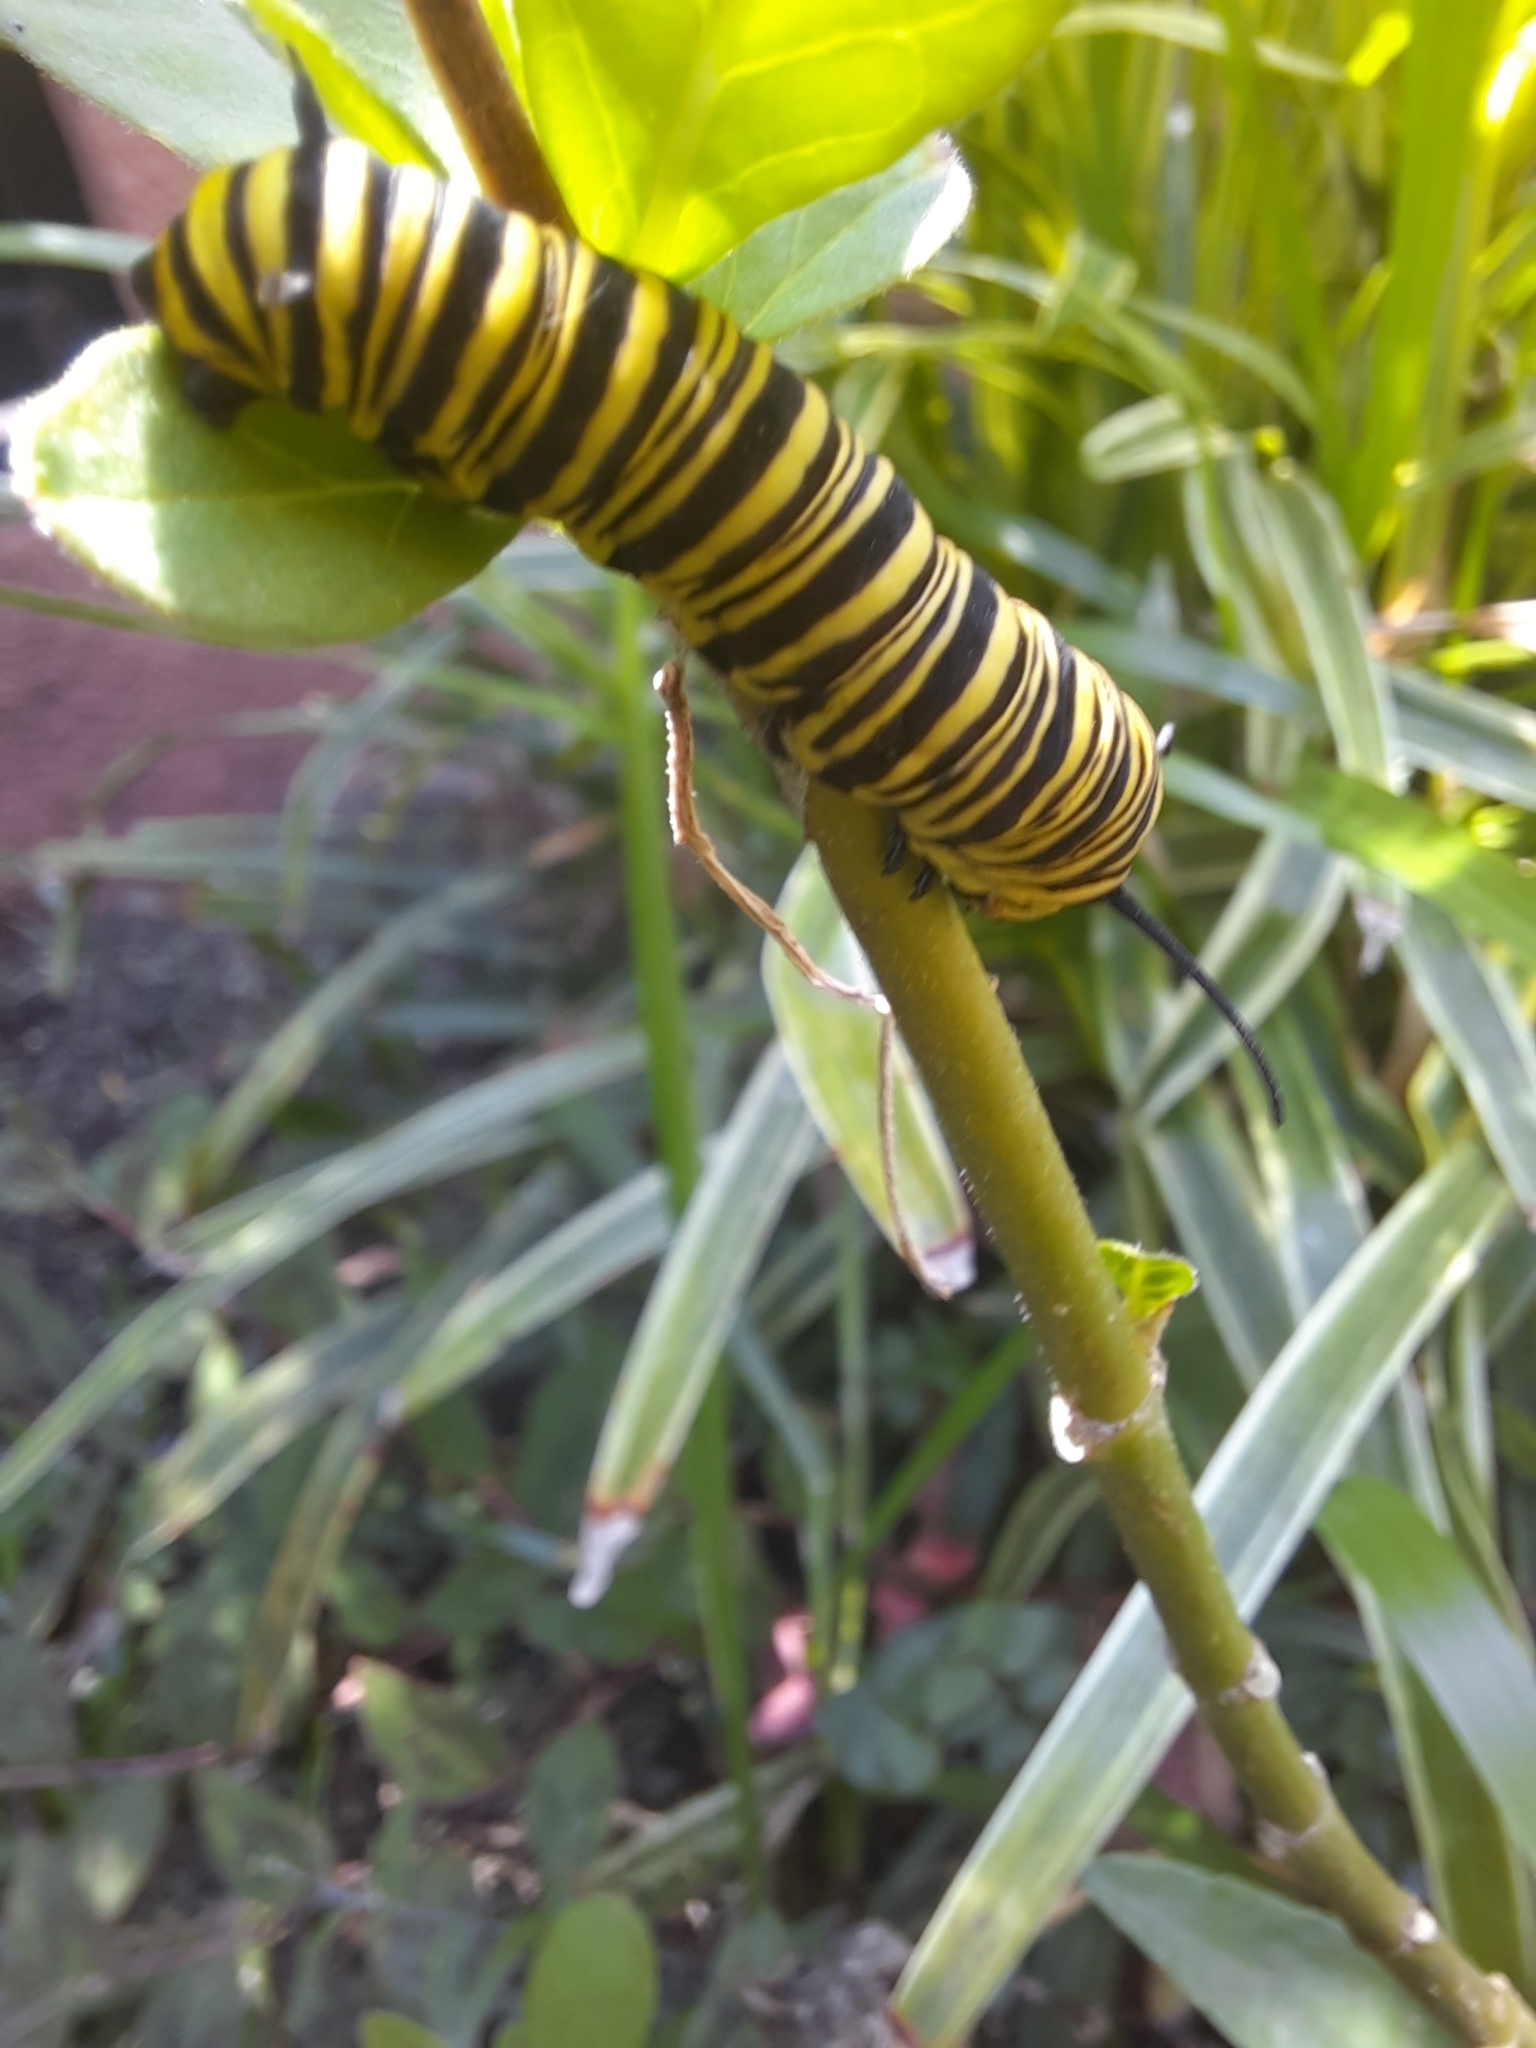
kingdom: Animalia
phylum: Arthropoda
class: Insecta
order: Lepidoptera
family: Nymphalidae
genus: Danaus
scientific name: Danaus erippus
